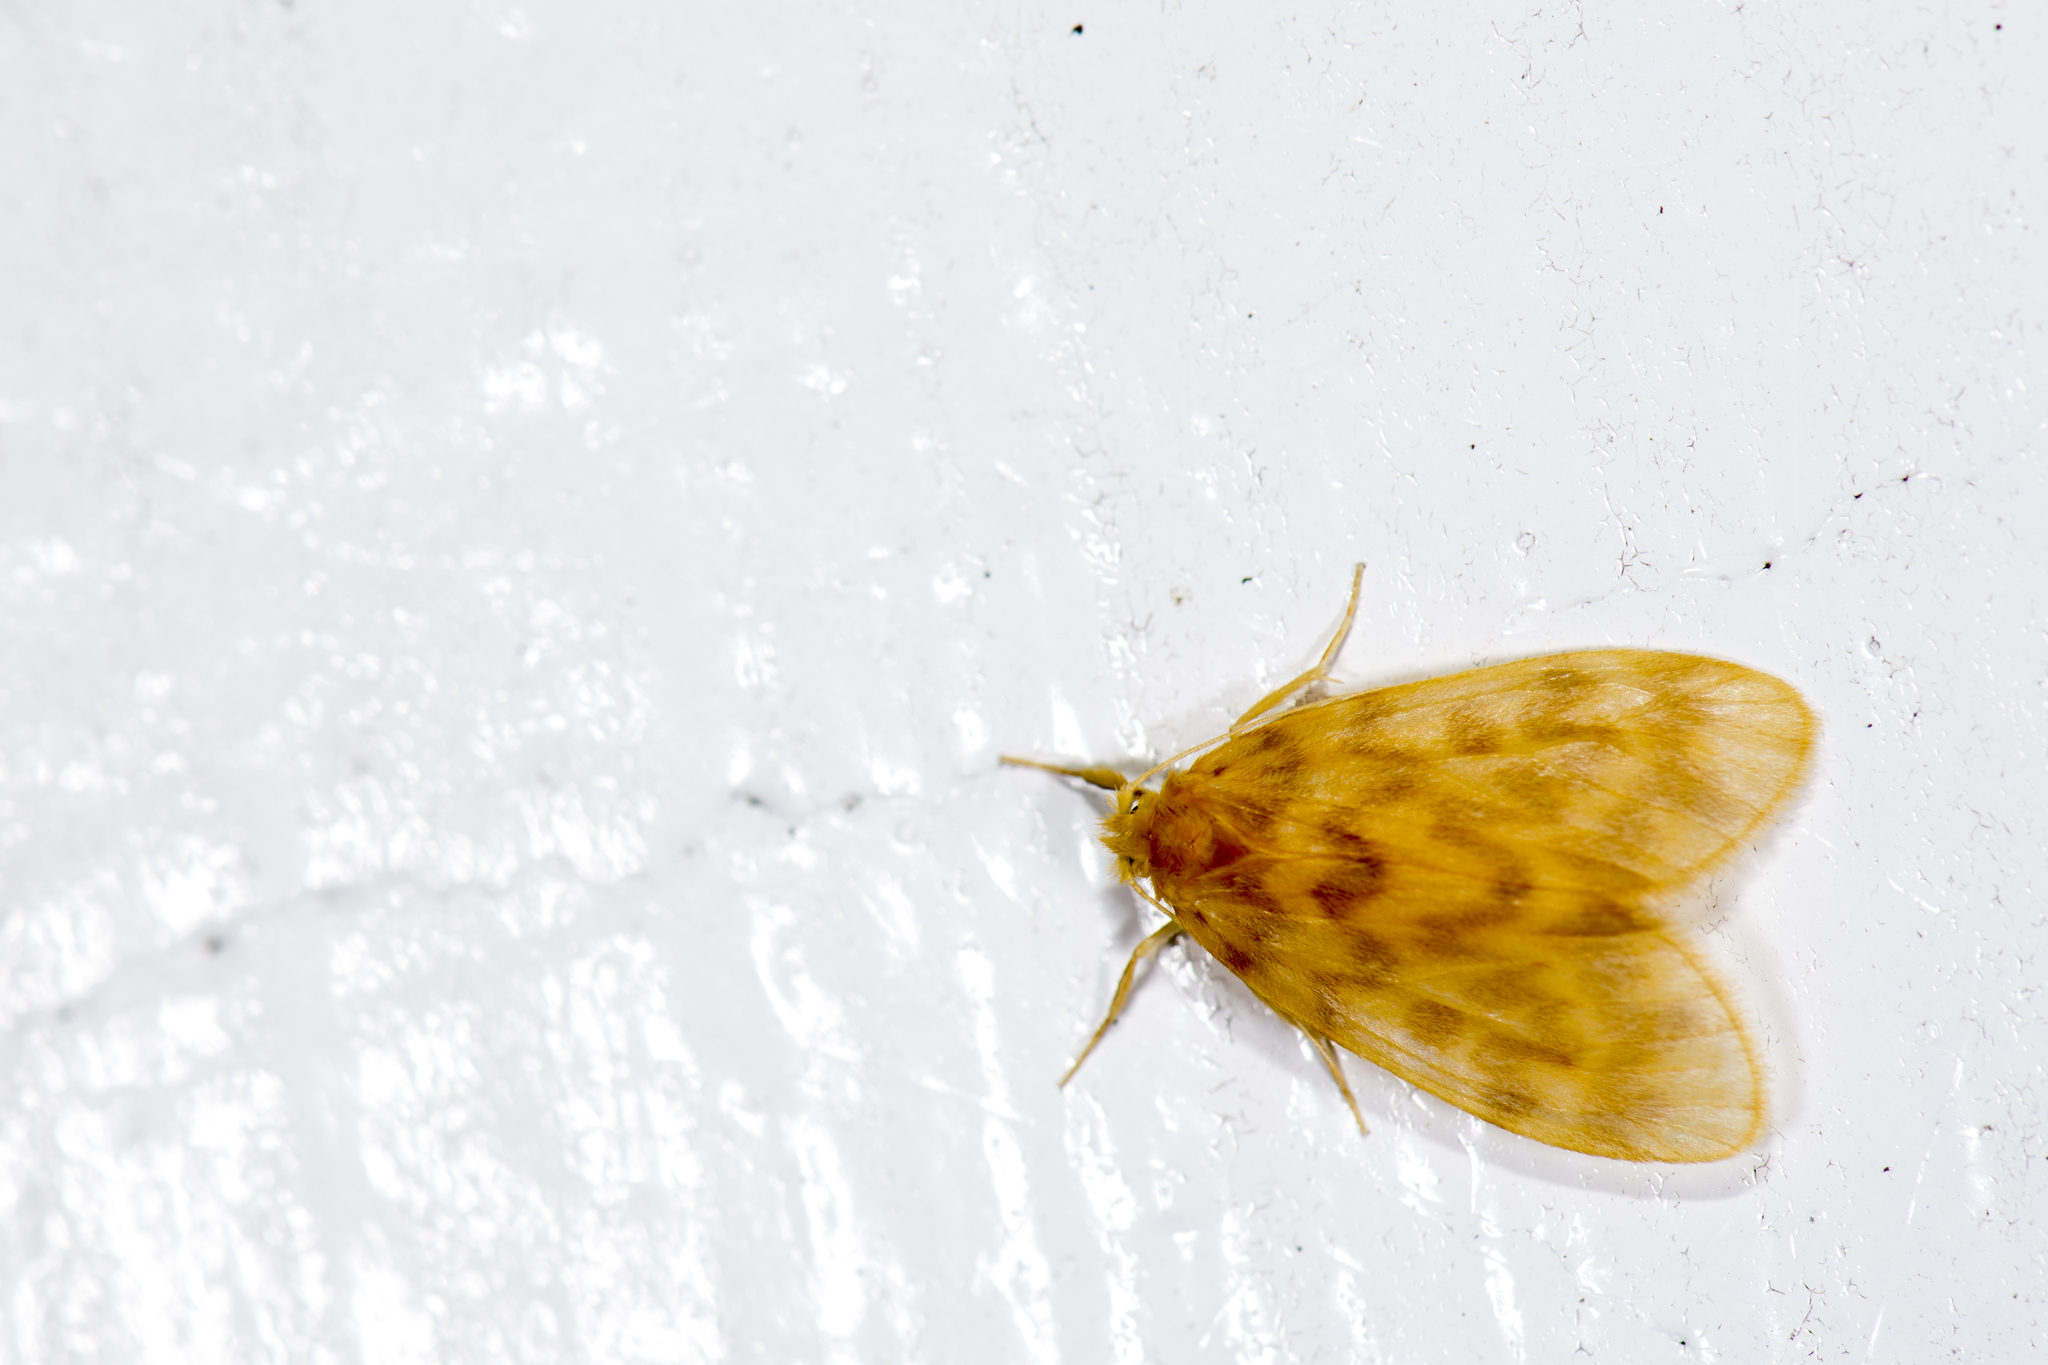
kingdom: Animalia
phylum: Arthropoda
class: Insecta
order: Lepidoptera
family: Erebidae
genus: Hemipsilia
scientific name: Hemipsilia coavestis
